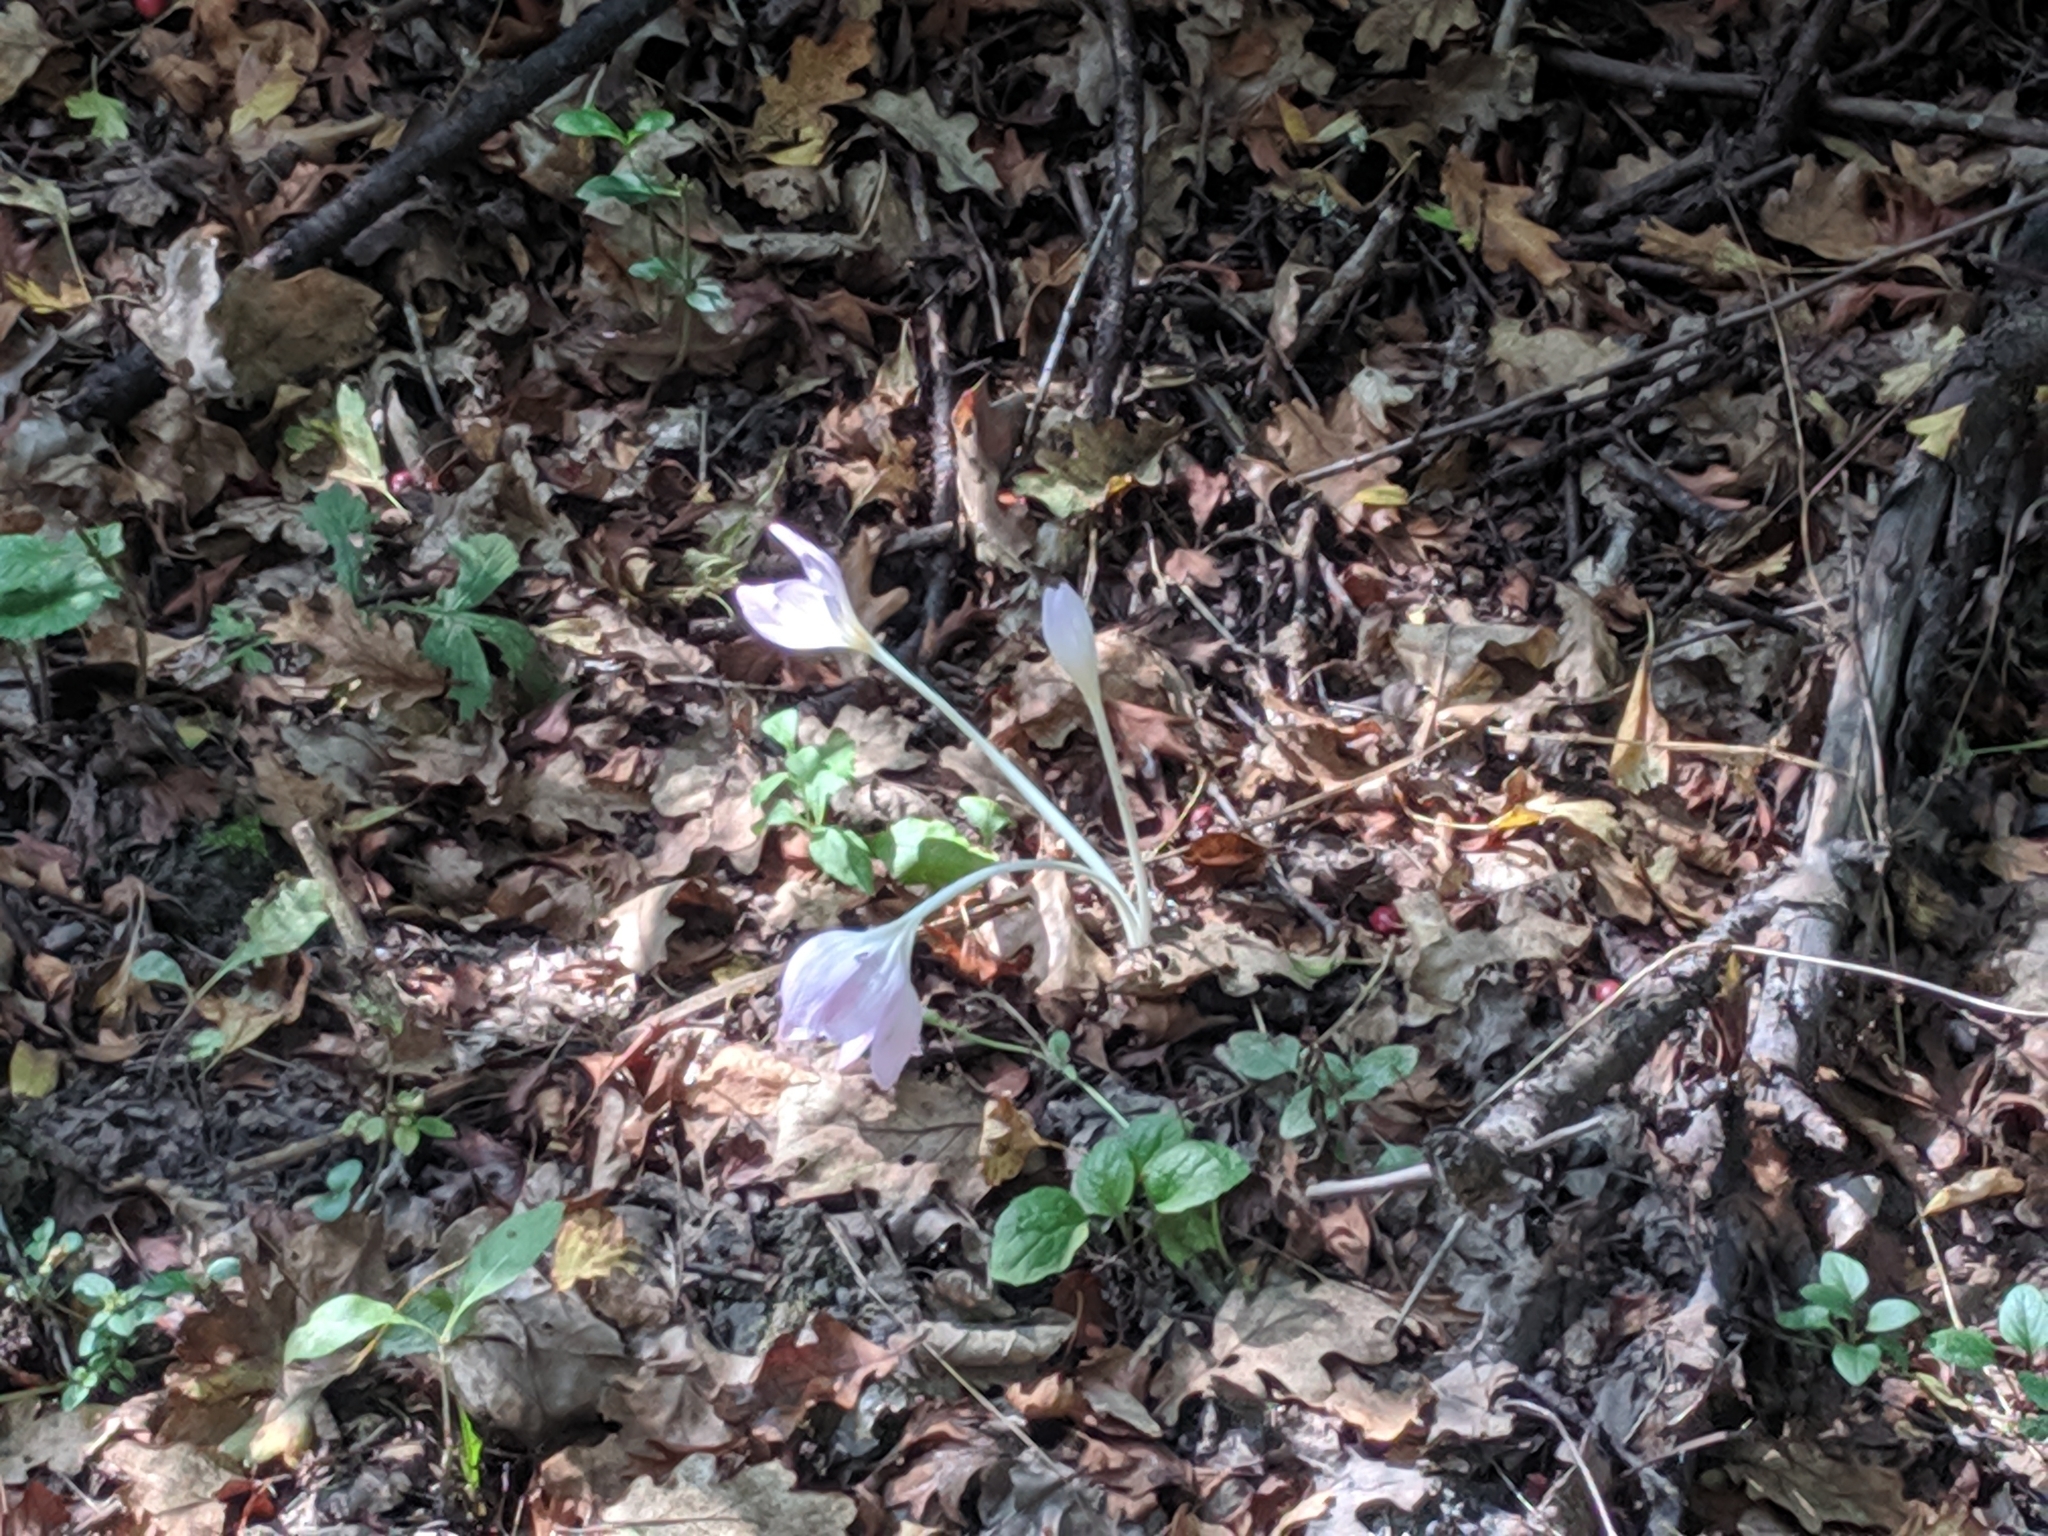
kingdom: Plantae
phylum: Tracheophyta
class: Liliopsida
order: Liliales
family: Colchicaceae
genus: Colchicum
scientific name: Colchicum autumnale
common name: Autumn crocus
